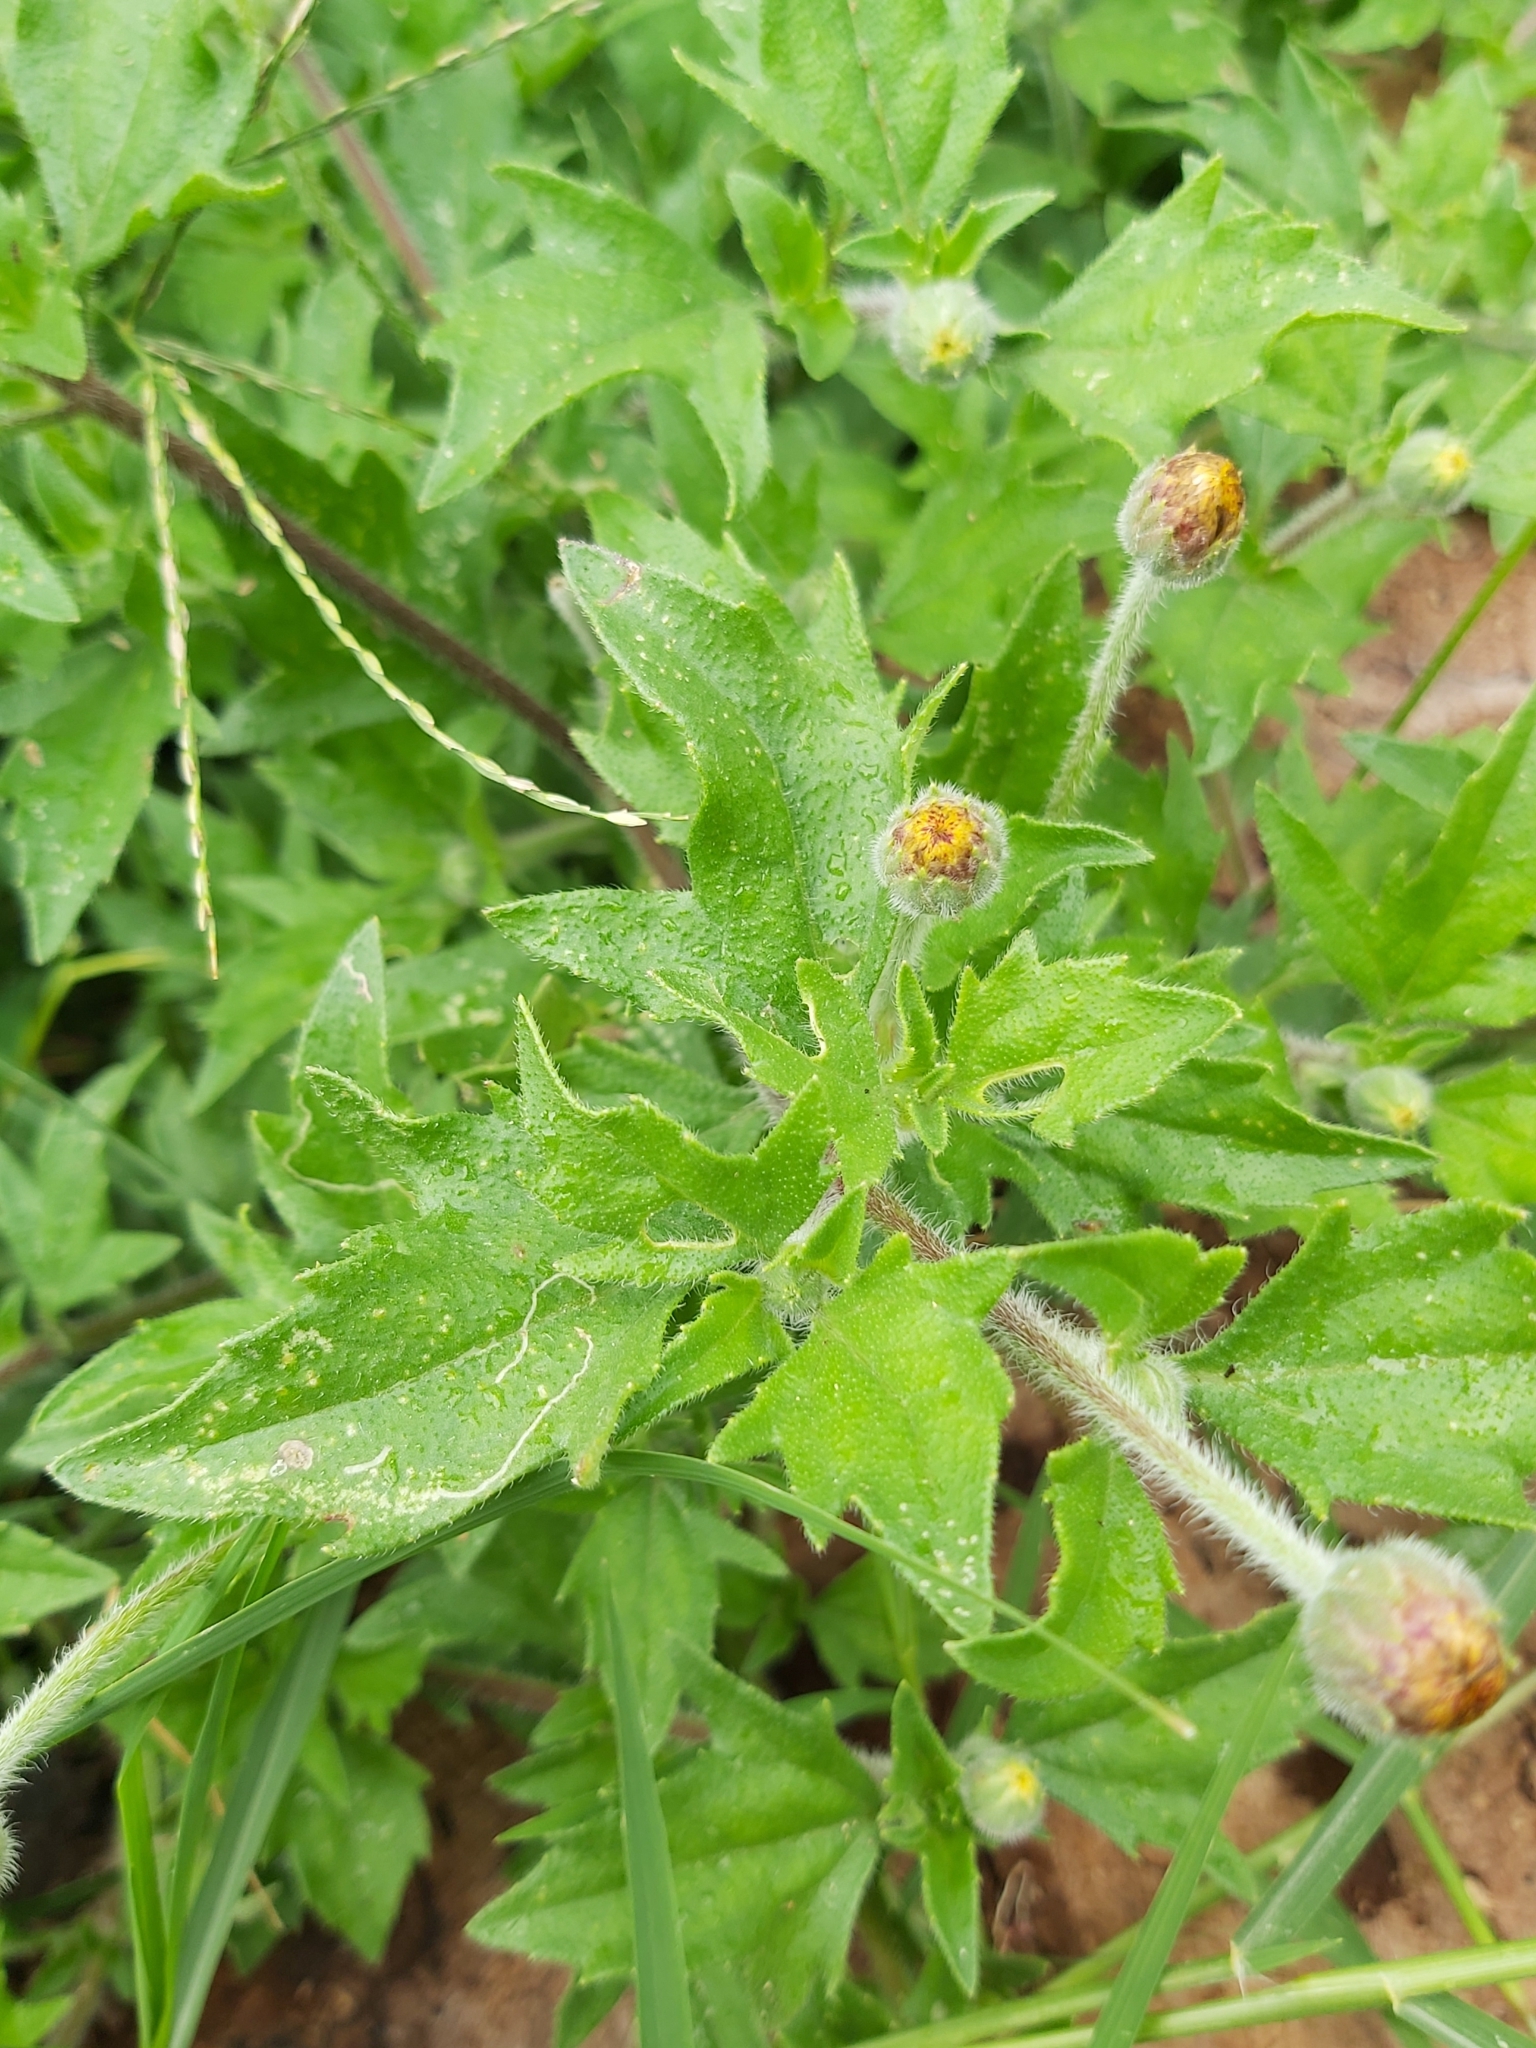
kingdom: Plantae
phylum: Tracheophyta
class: Magnoliopsida
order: Asterales
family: Asteraceae
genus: Tridax
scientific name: Tridax procumbens
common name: Coatbuttons
